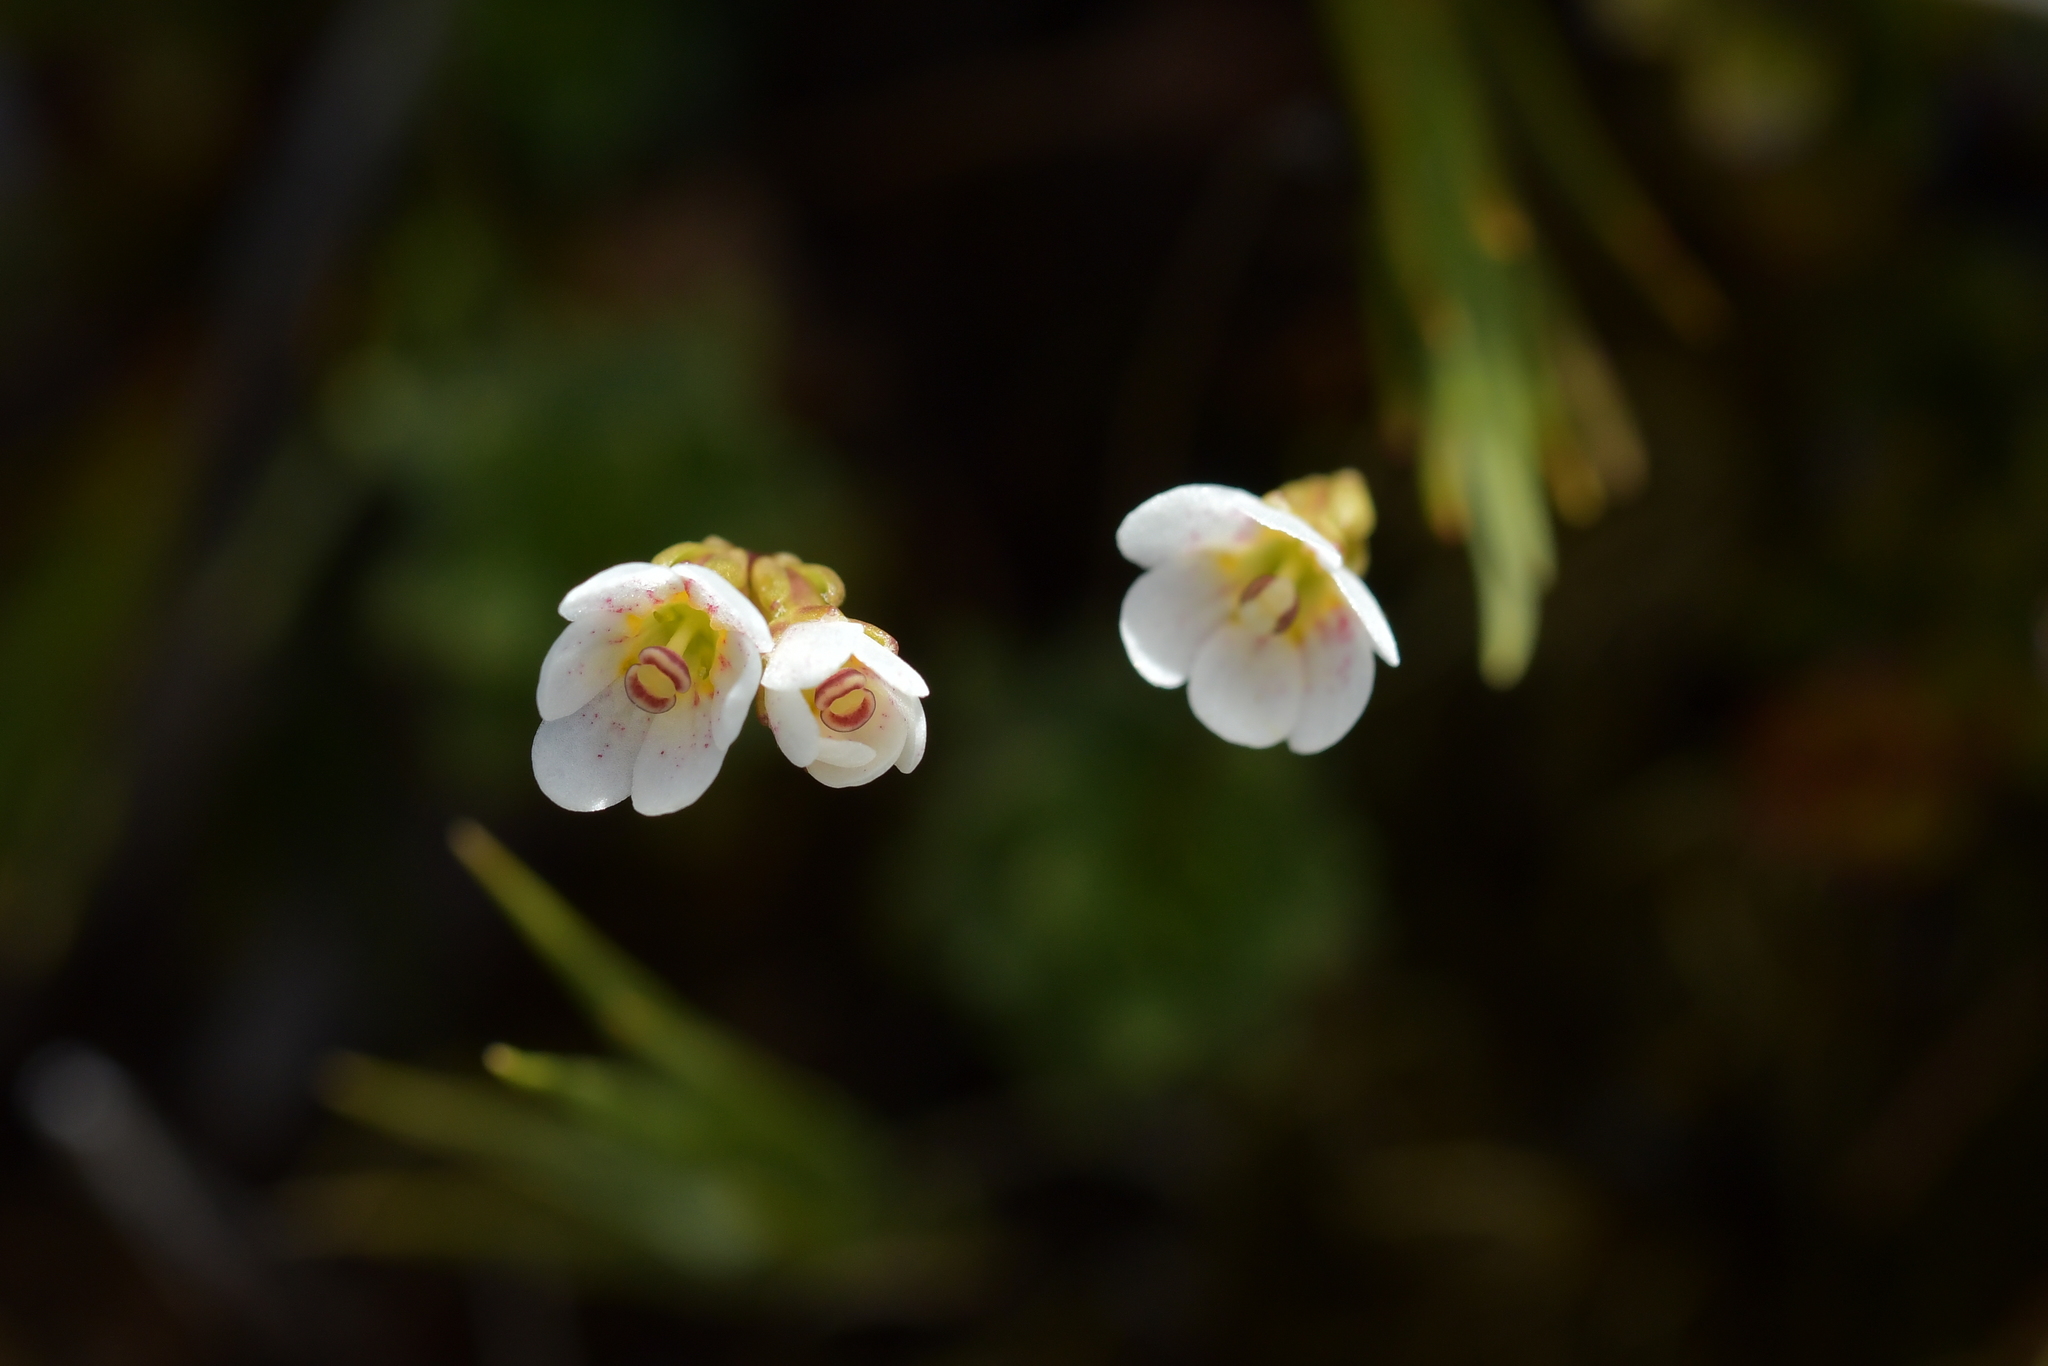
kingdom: Plantae
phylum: Tracheophyta
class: Magnoliopsida
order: Asterales
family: Stylidiaceae
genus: Forstera
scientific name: Forstera tenella
